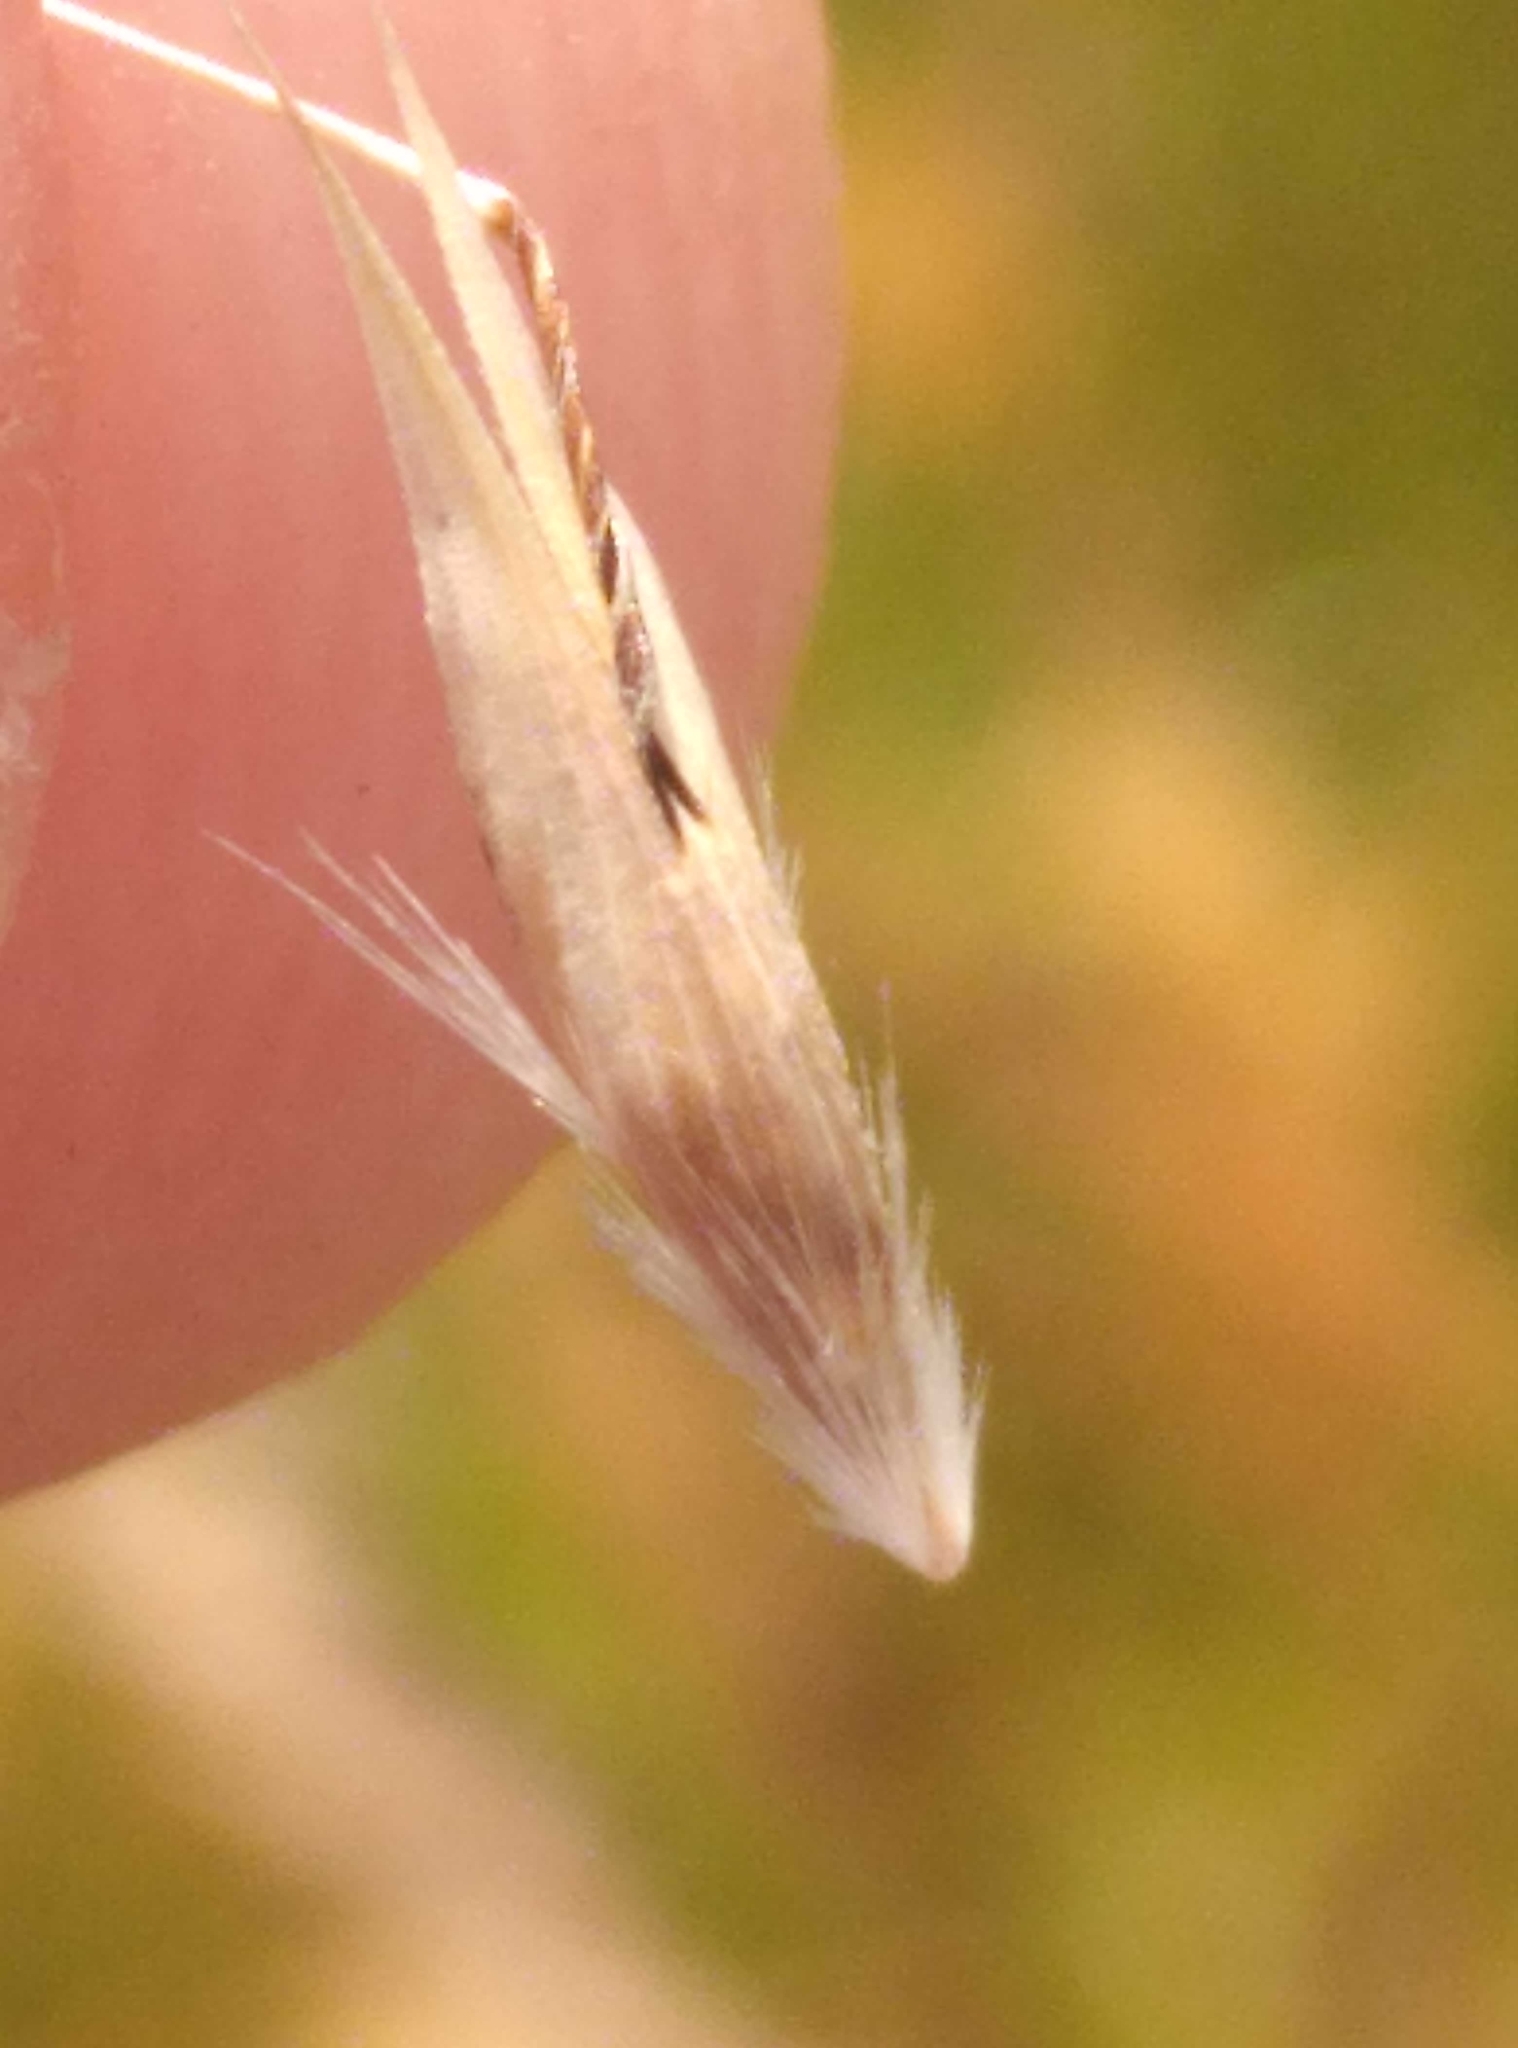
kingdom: Plantae
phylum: Tracheophyta
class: Liliopsida
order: Poales
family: Poaceae
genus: Rytidosperma
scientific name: Rytidosperma clavatum
